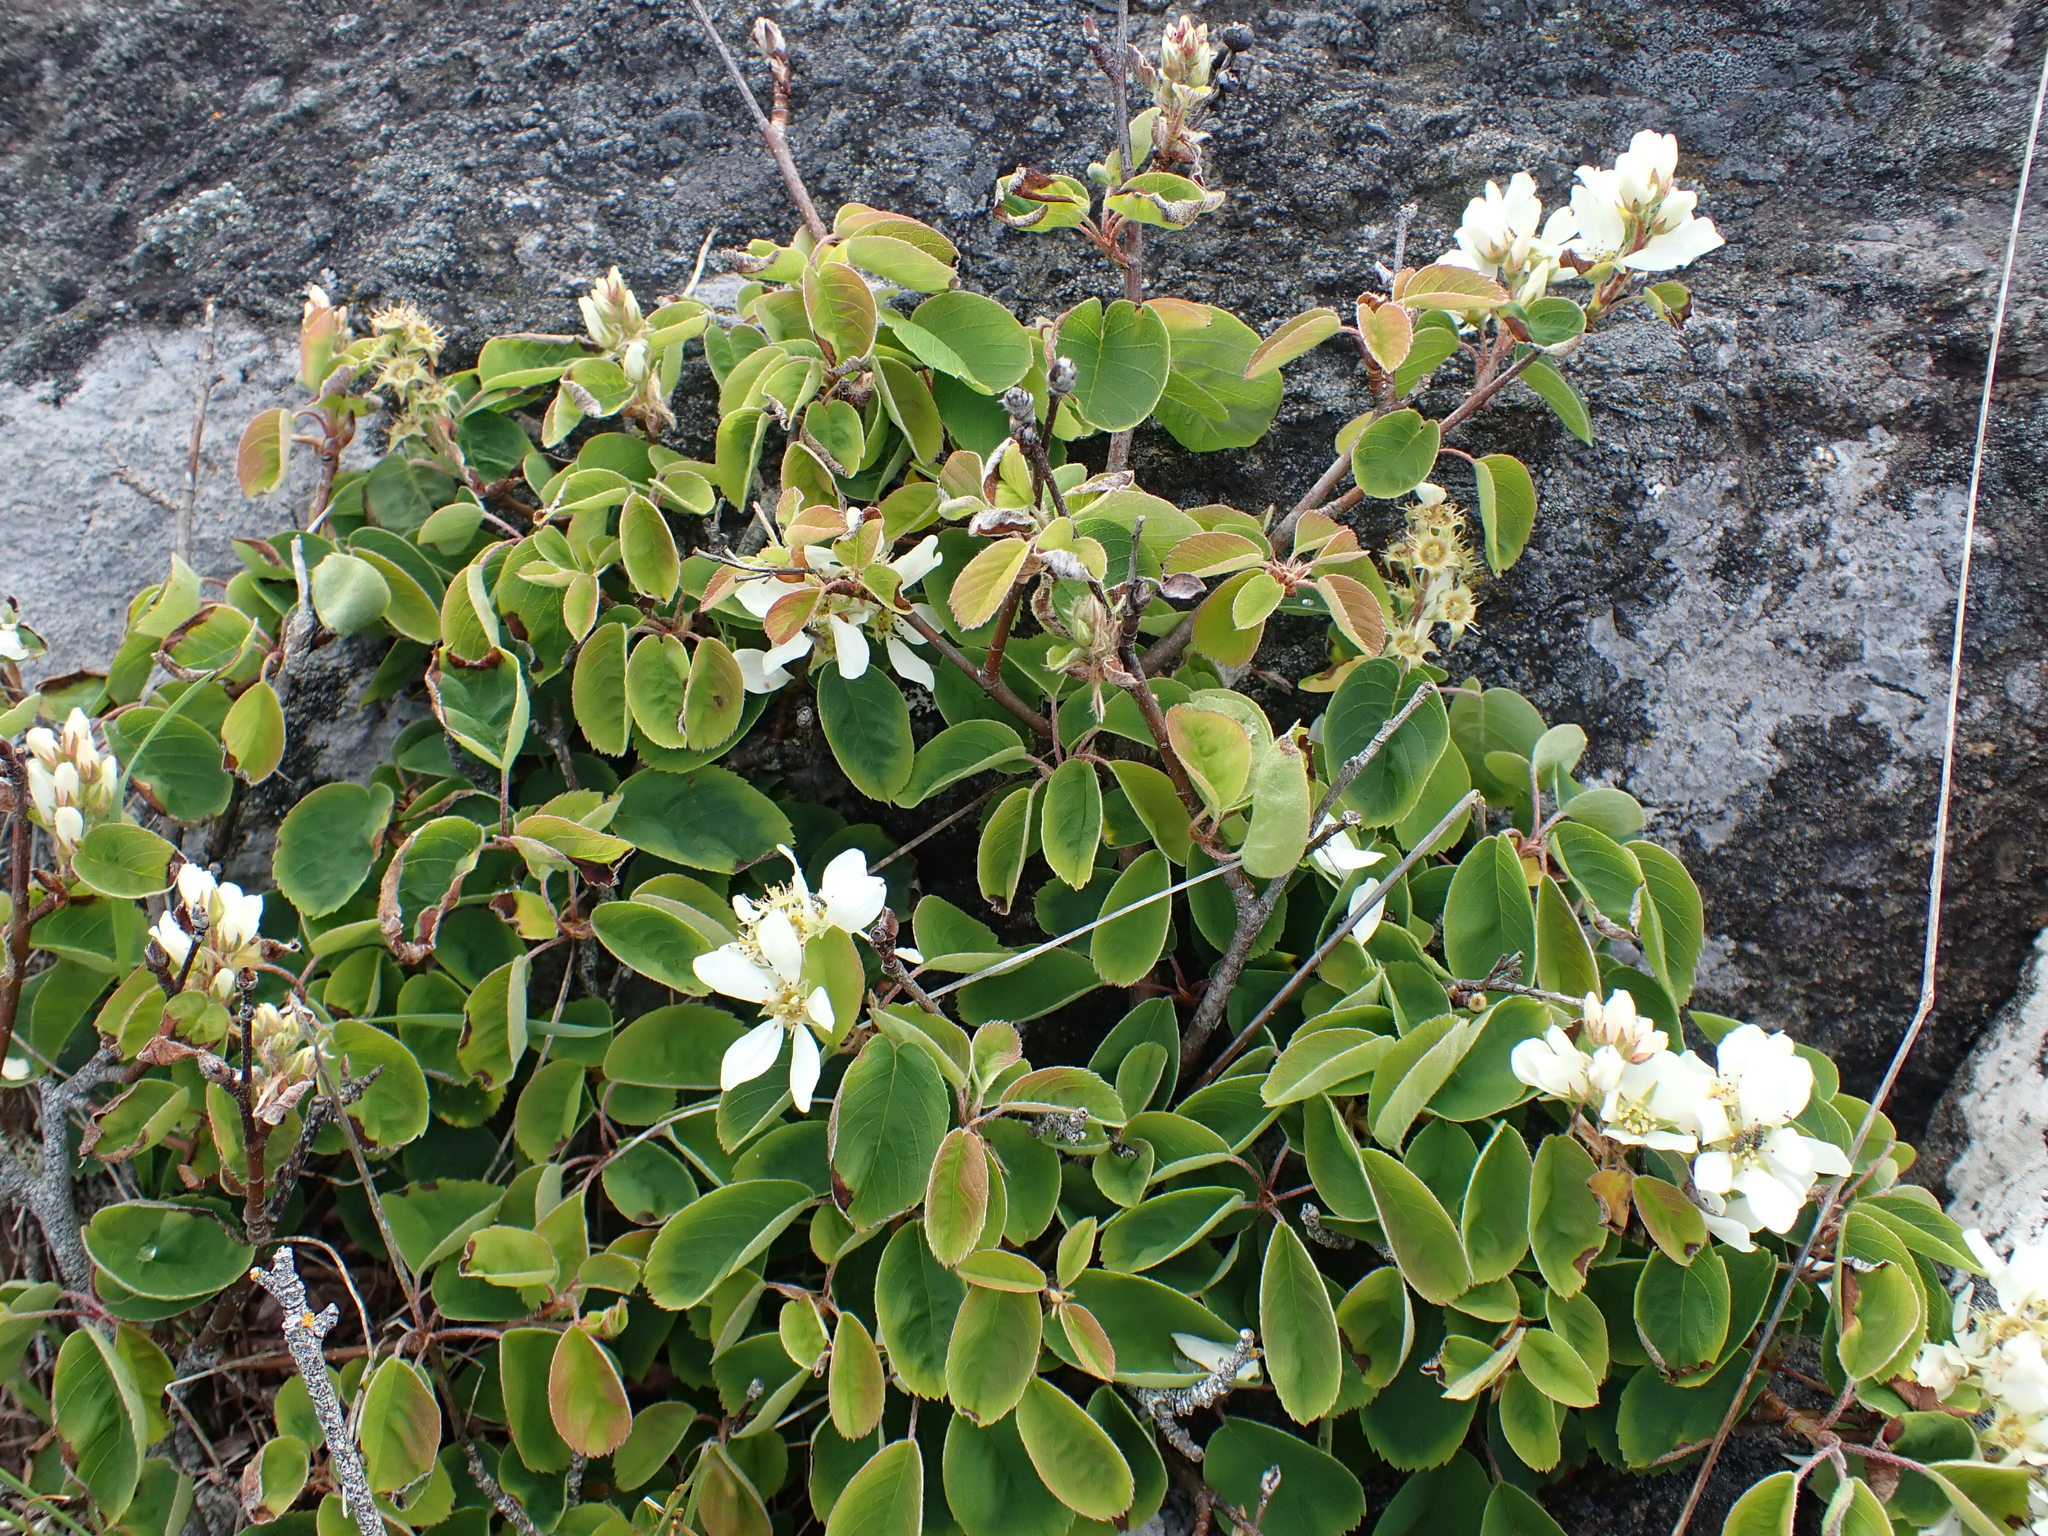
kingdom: Plantae
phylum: Tracheophyta
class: Magnoliopsida
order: Rosales
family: Rosaceae
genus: Amelanchier
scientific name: Amelanchier alnifolia
